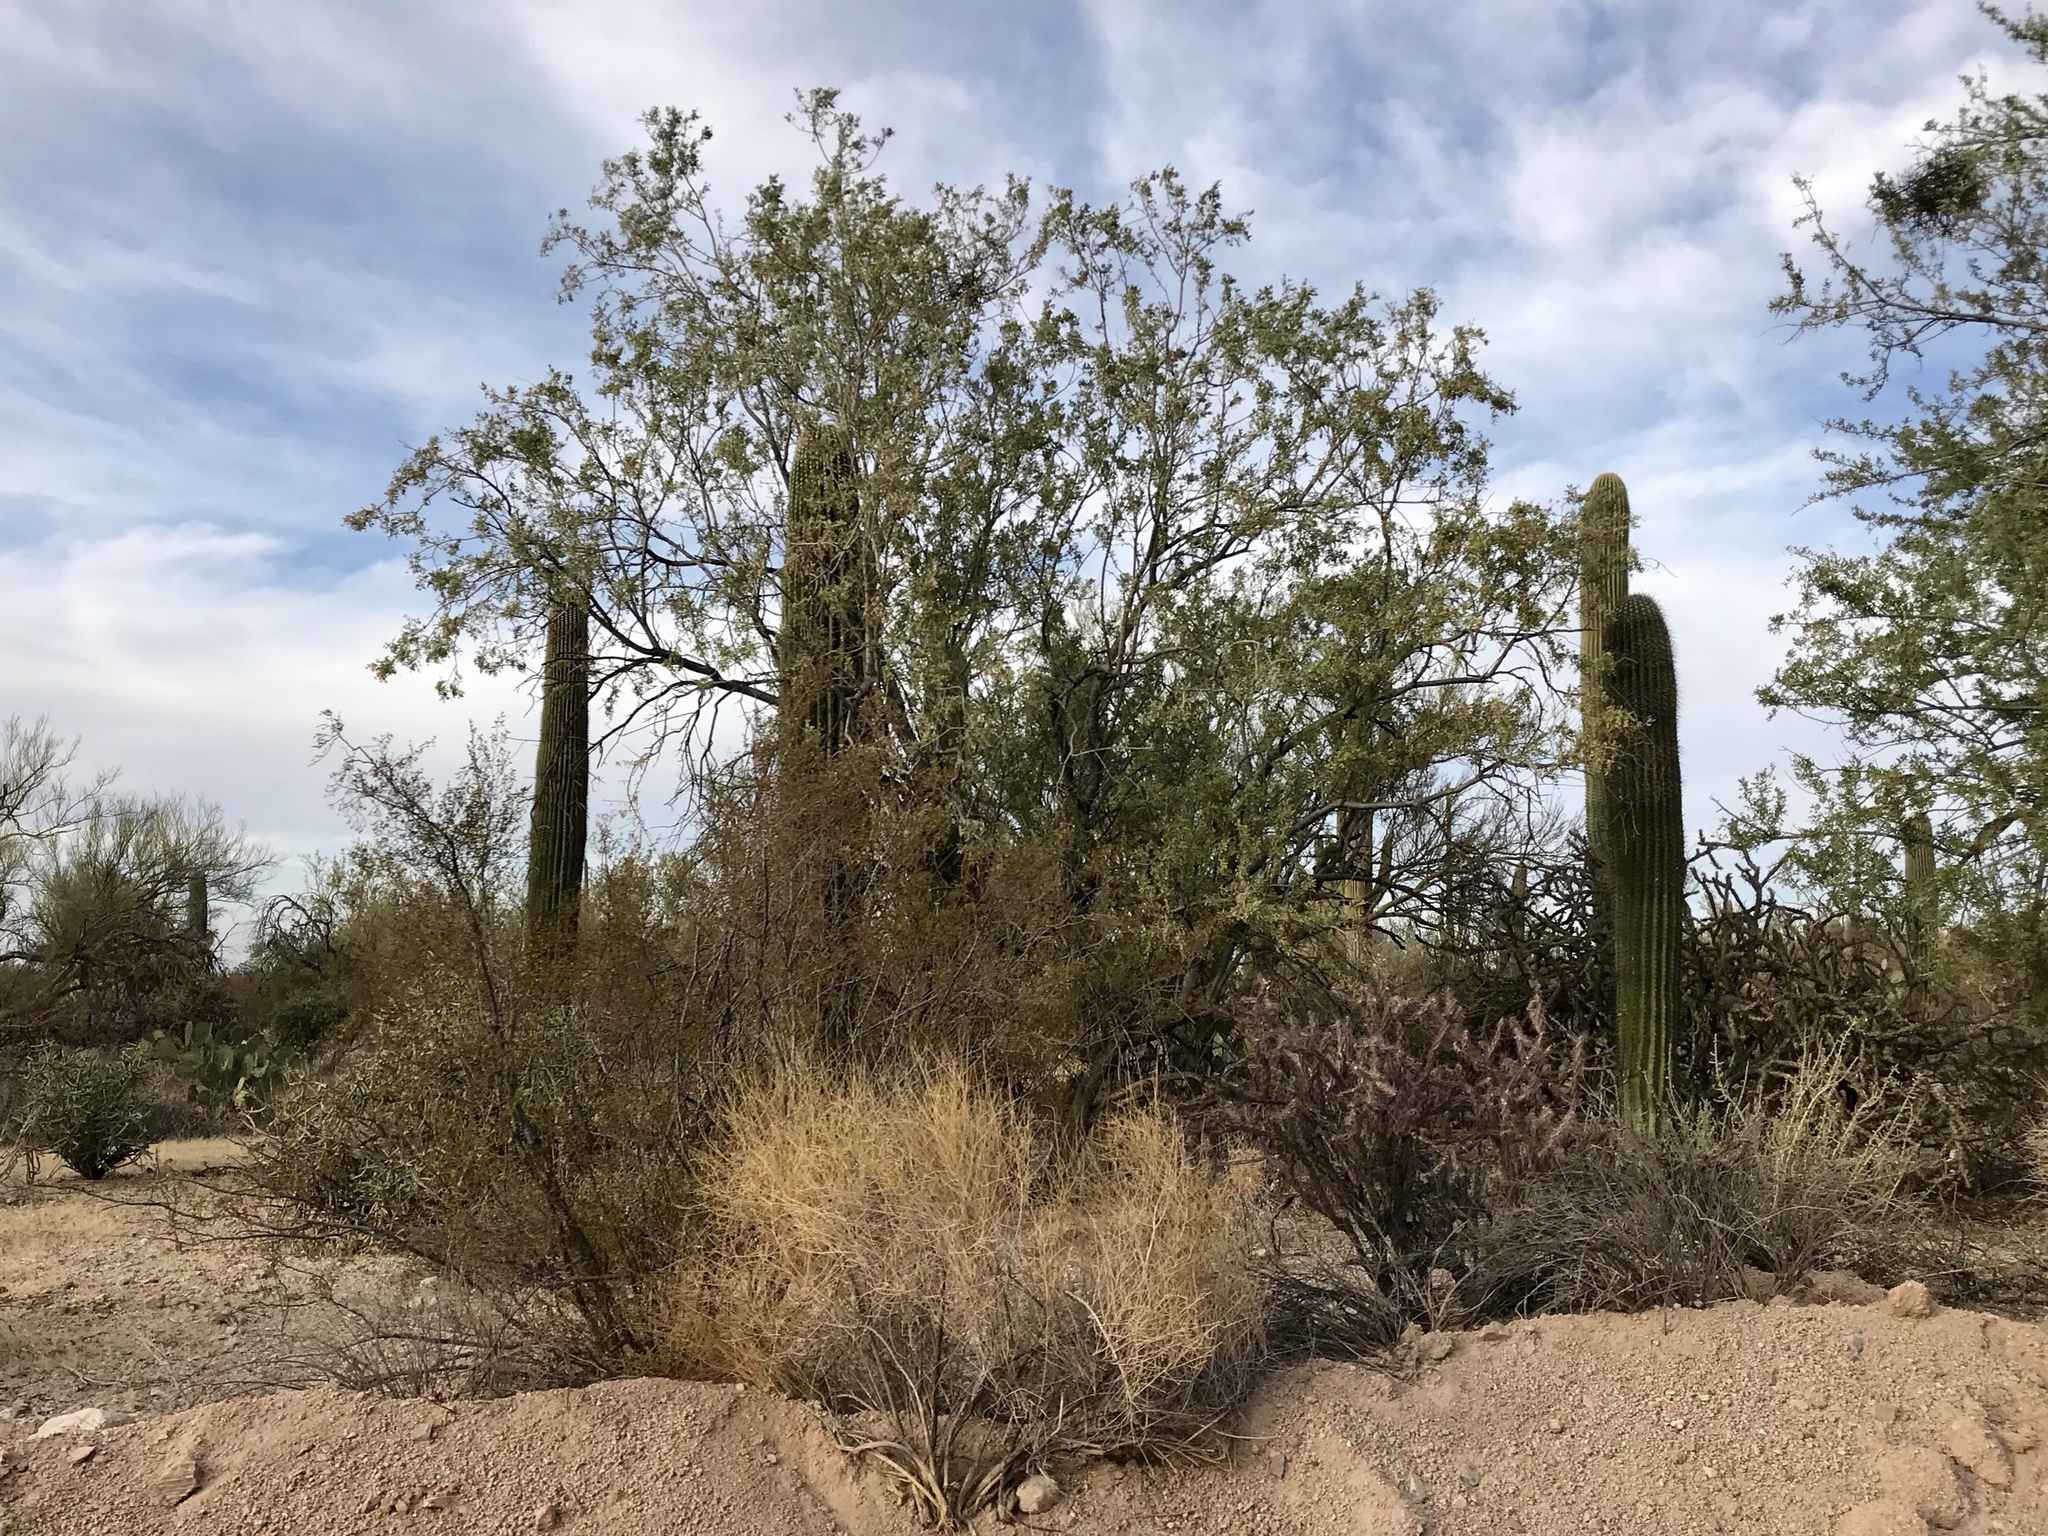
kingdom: Plantae
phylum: Tracheophyta
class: Magnoliopsida
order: Fabales
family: Fabaceae
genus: Olneya
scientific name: Olneya tesota
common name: Desert ironwood
